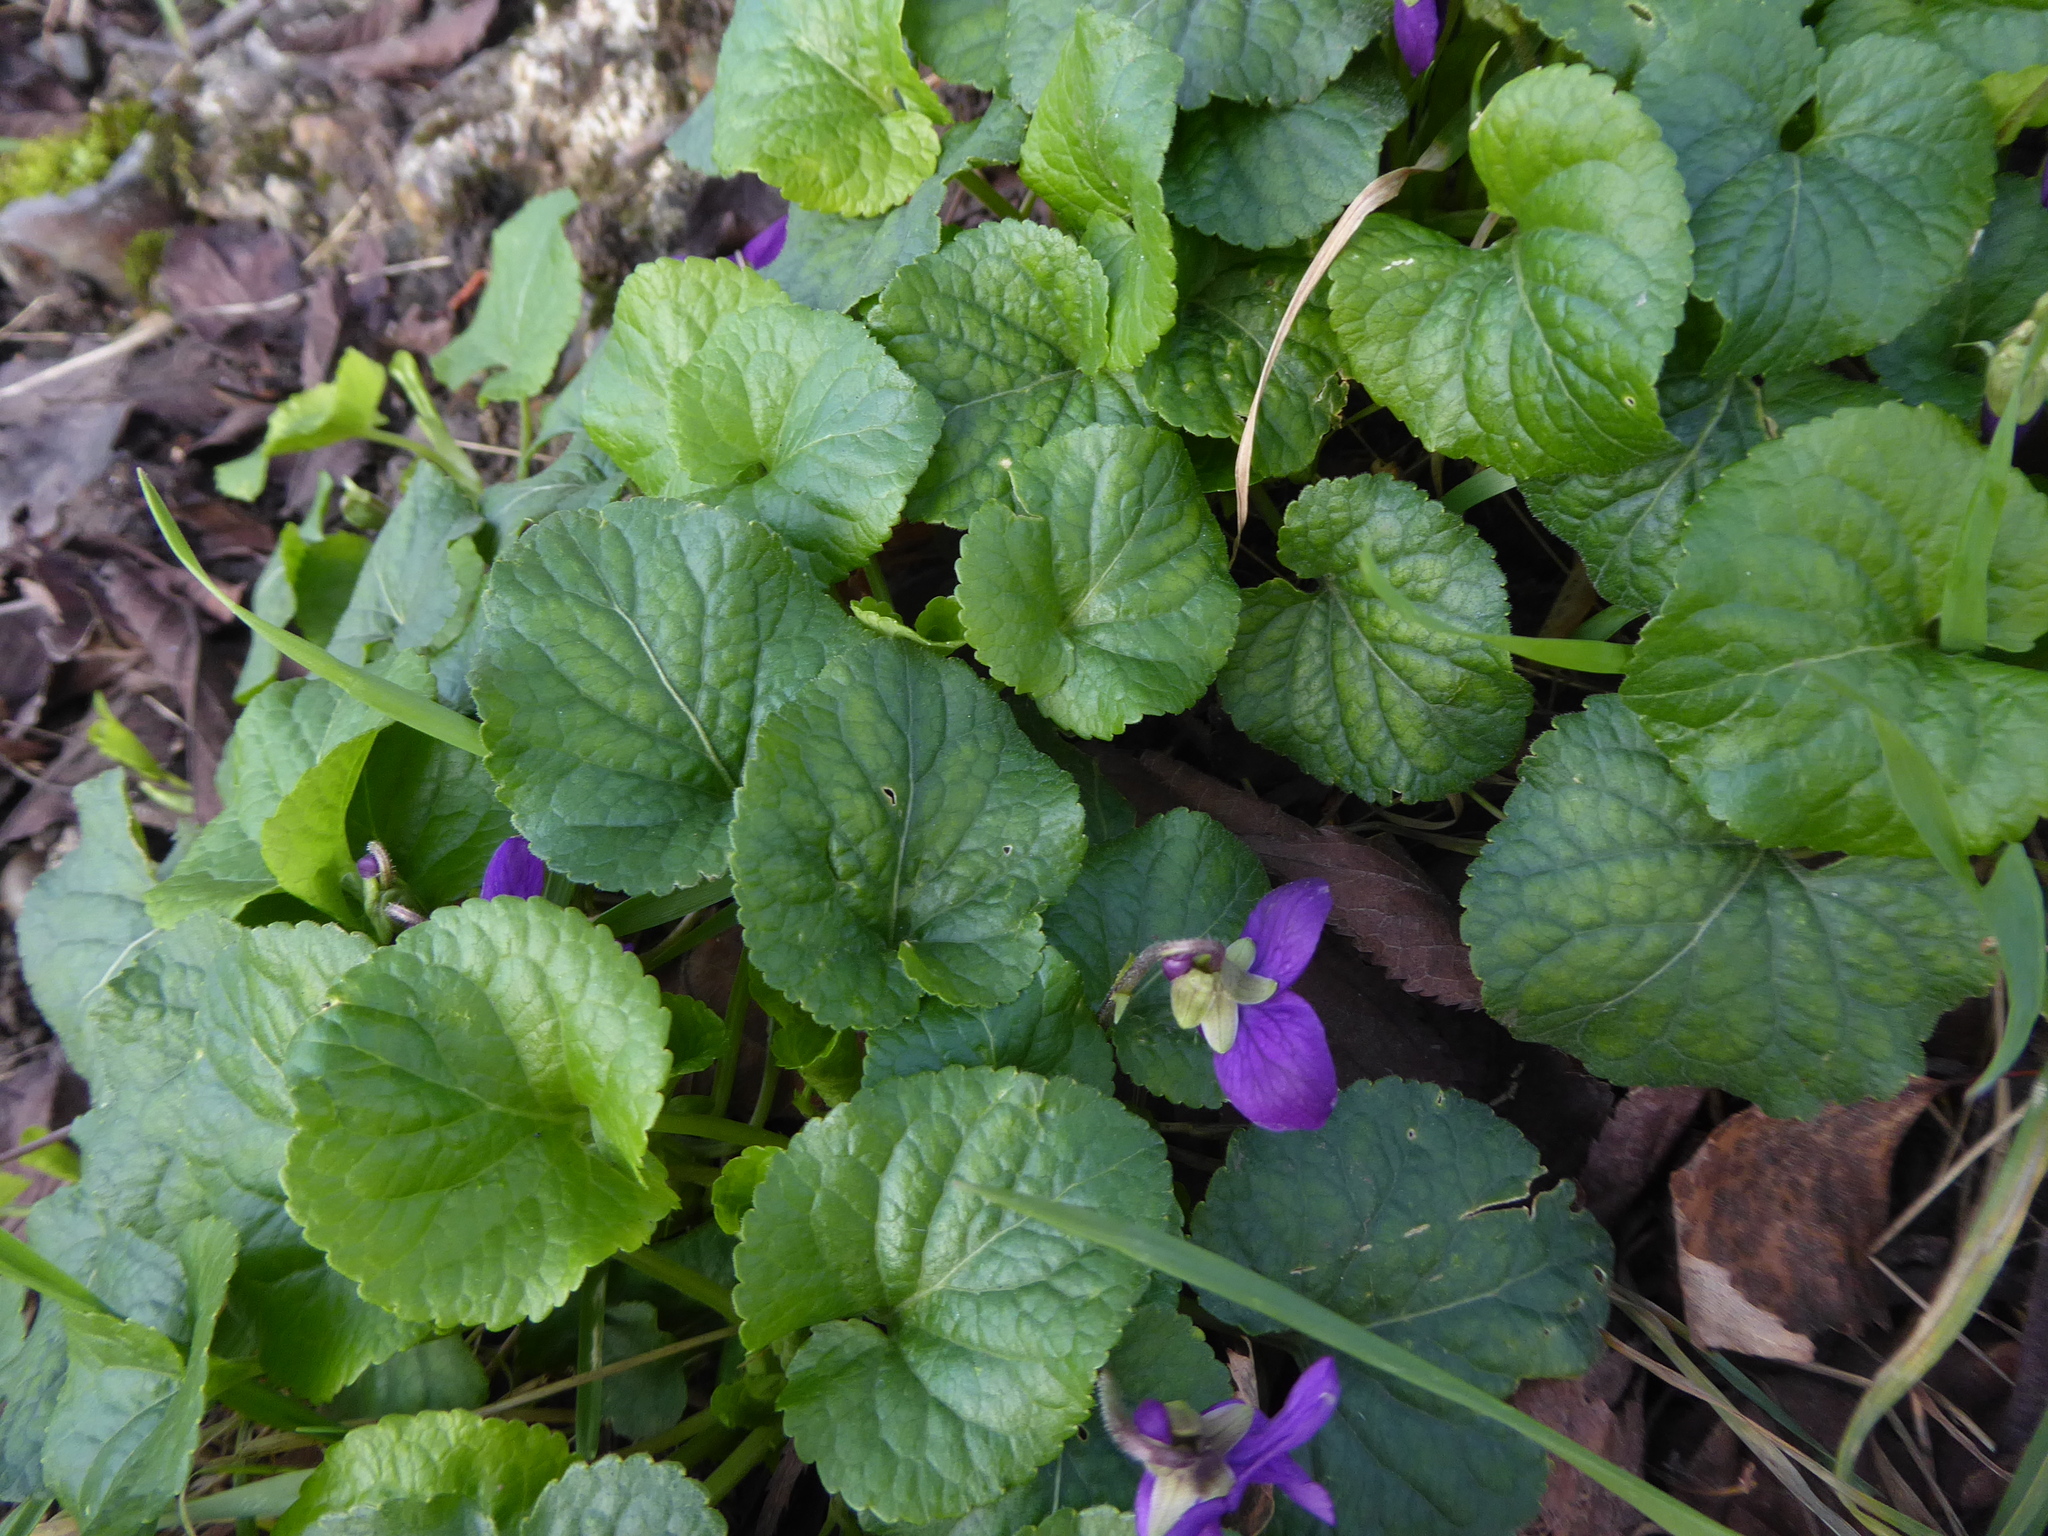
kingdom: Plantae
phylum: Tracheophyta
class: Magnoliopsida
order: Malpighiales
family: Violaceae
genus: Viola
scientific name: Viola odorata
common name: Sweet violet
